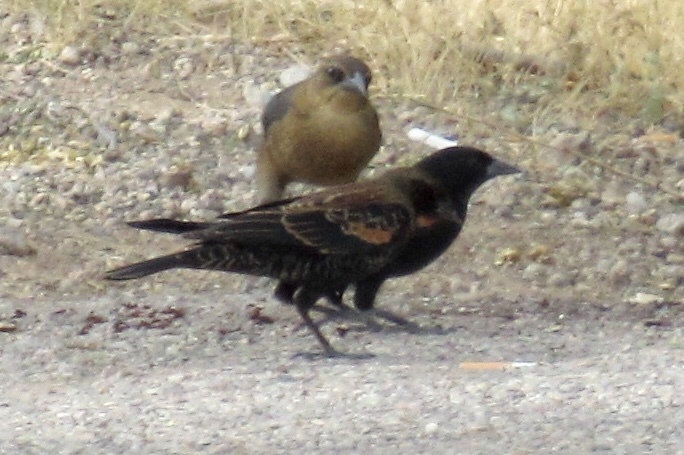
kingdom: Animalia
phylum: Chordata
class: Aves
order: Passeriformes
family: Icteridae
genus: Agelaius
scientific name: Agelaius phoeniceus
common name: Red-winged blackbird
